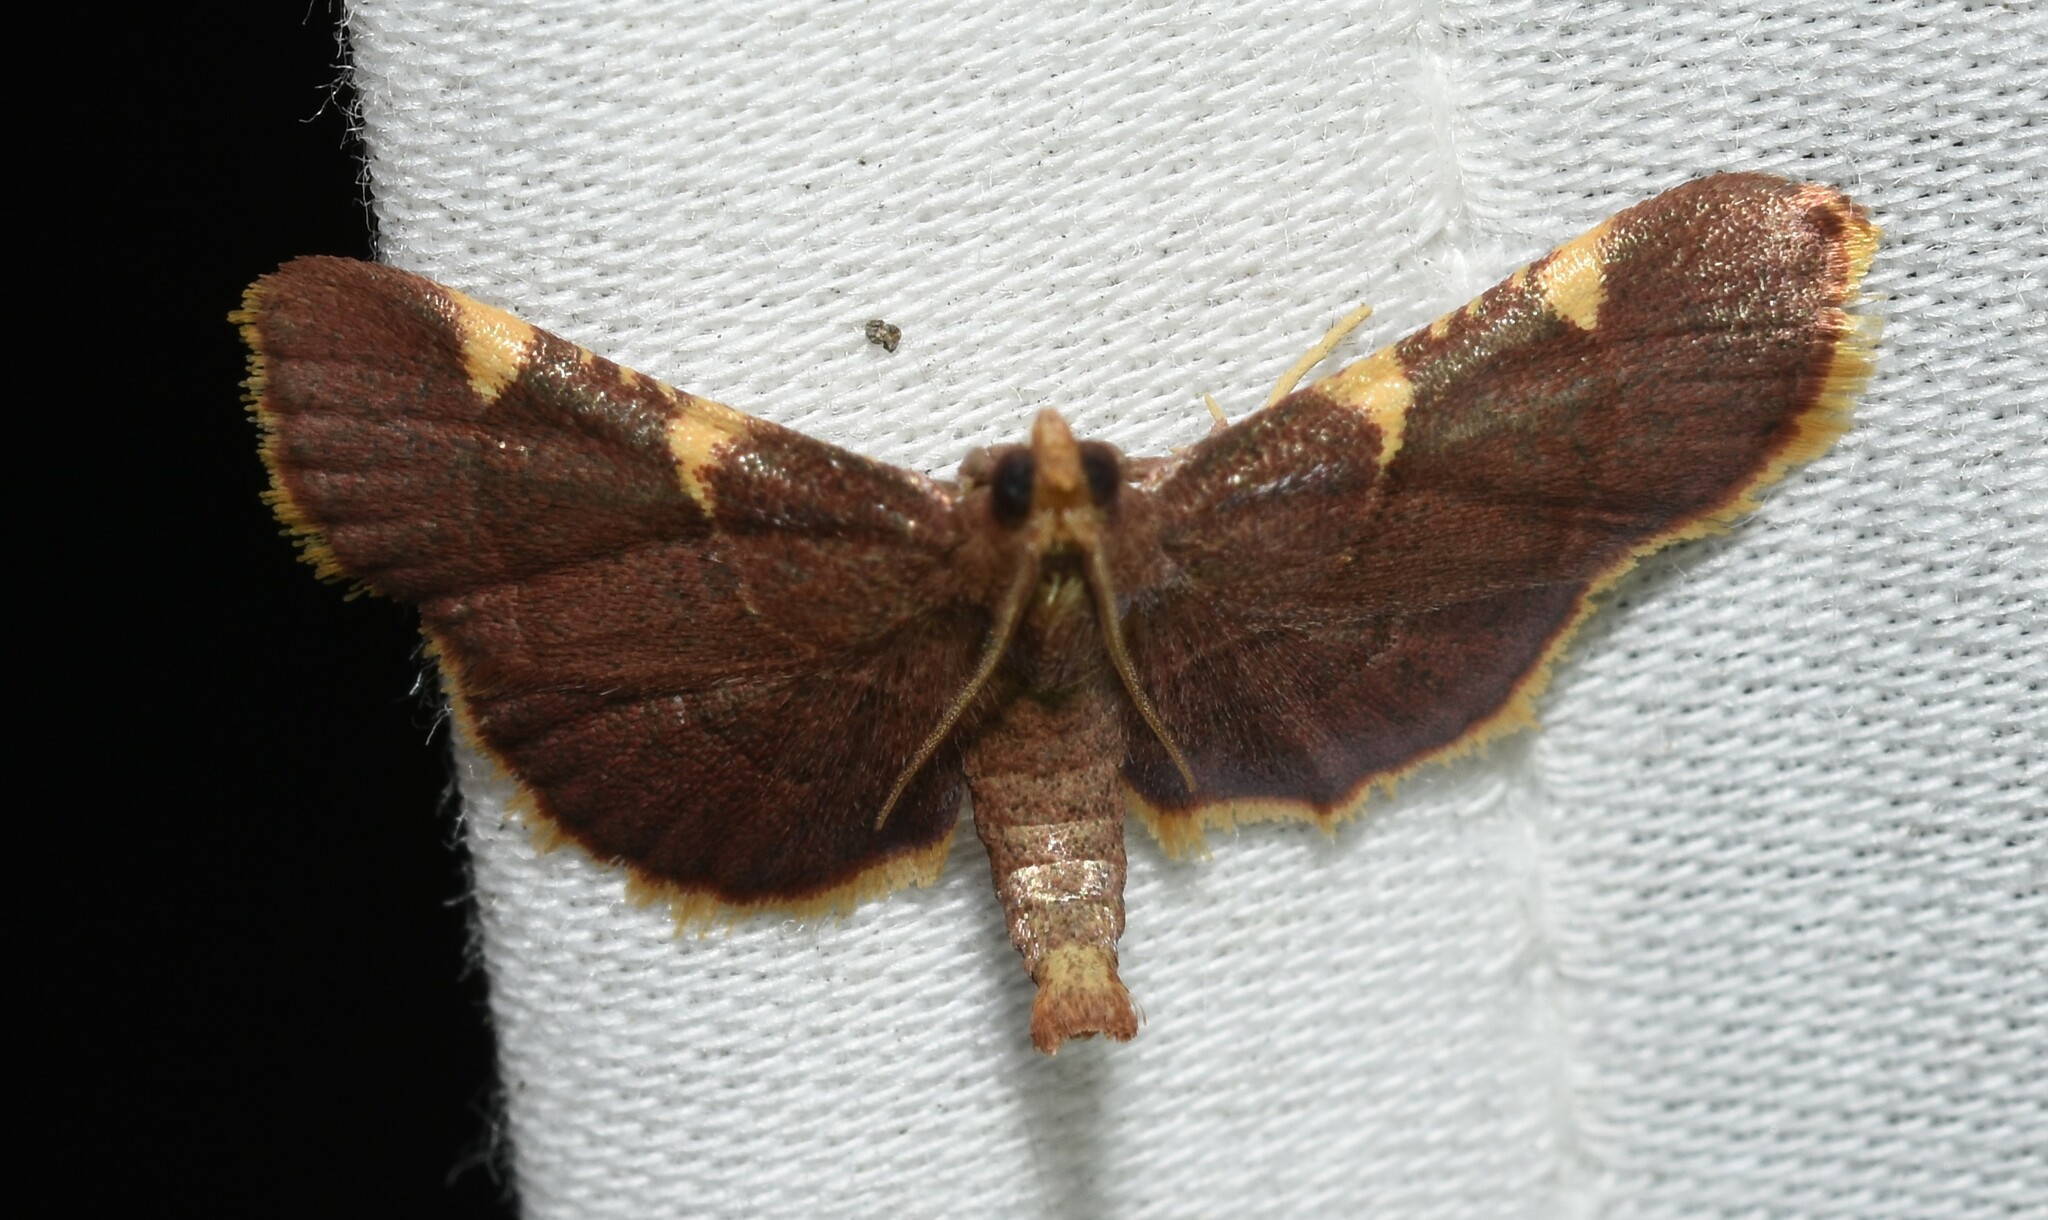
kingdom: Animalia
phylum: Arthropoda
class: Insecta
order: Lepidoptera
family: Pyralidae
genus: Hypsopygia
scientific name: Hypsopygia olinalis
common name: Yellow-fringed dolichomia moth
